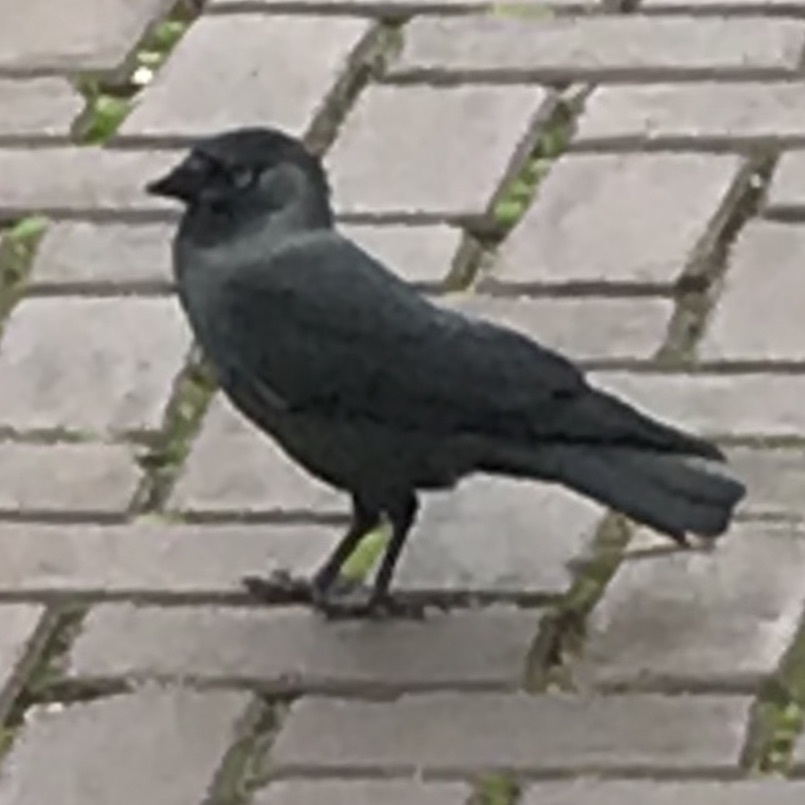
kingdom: Animalia
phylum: Chordata
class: Aves
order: Passeriformes
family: Corvidae
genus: Coloeus
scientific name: Coloeus monedula
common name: Western jackdaw
